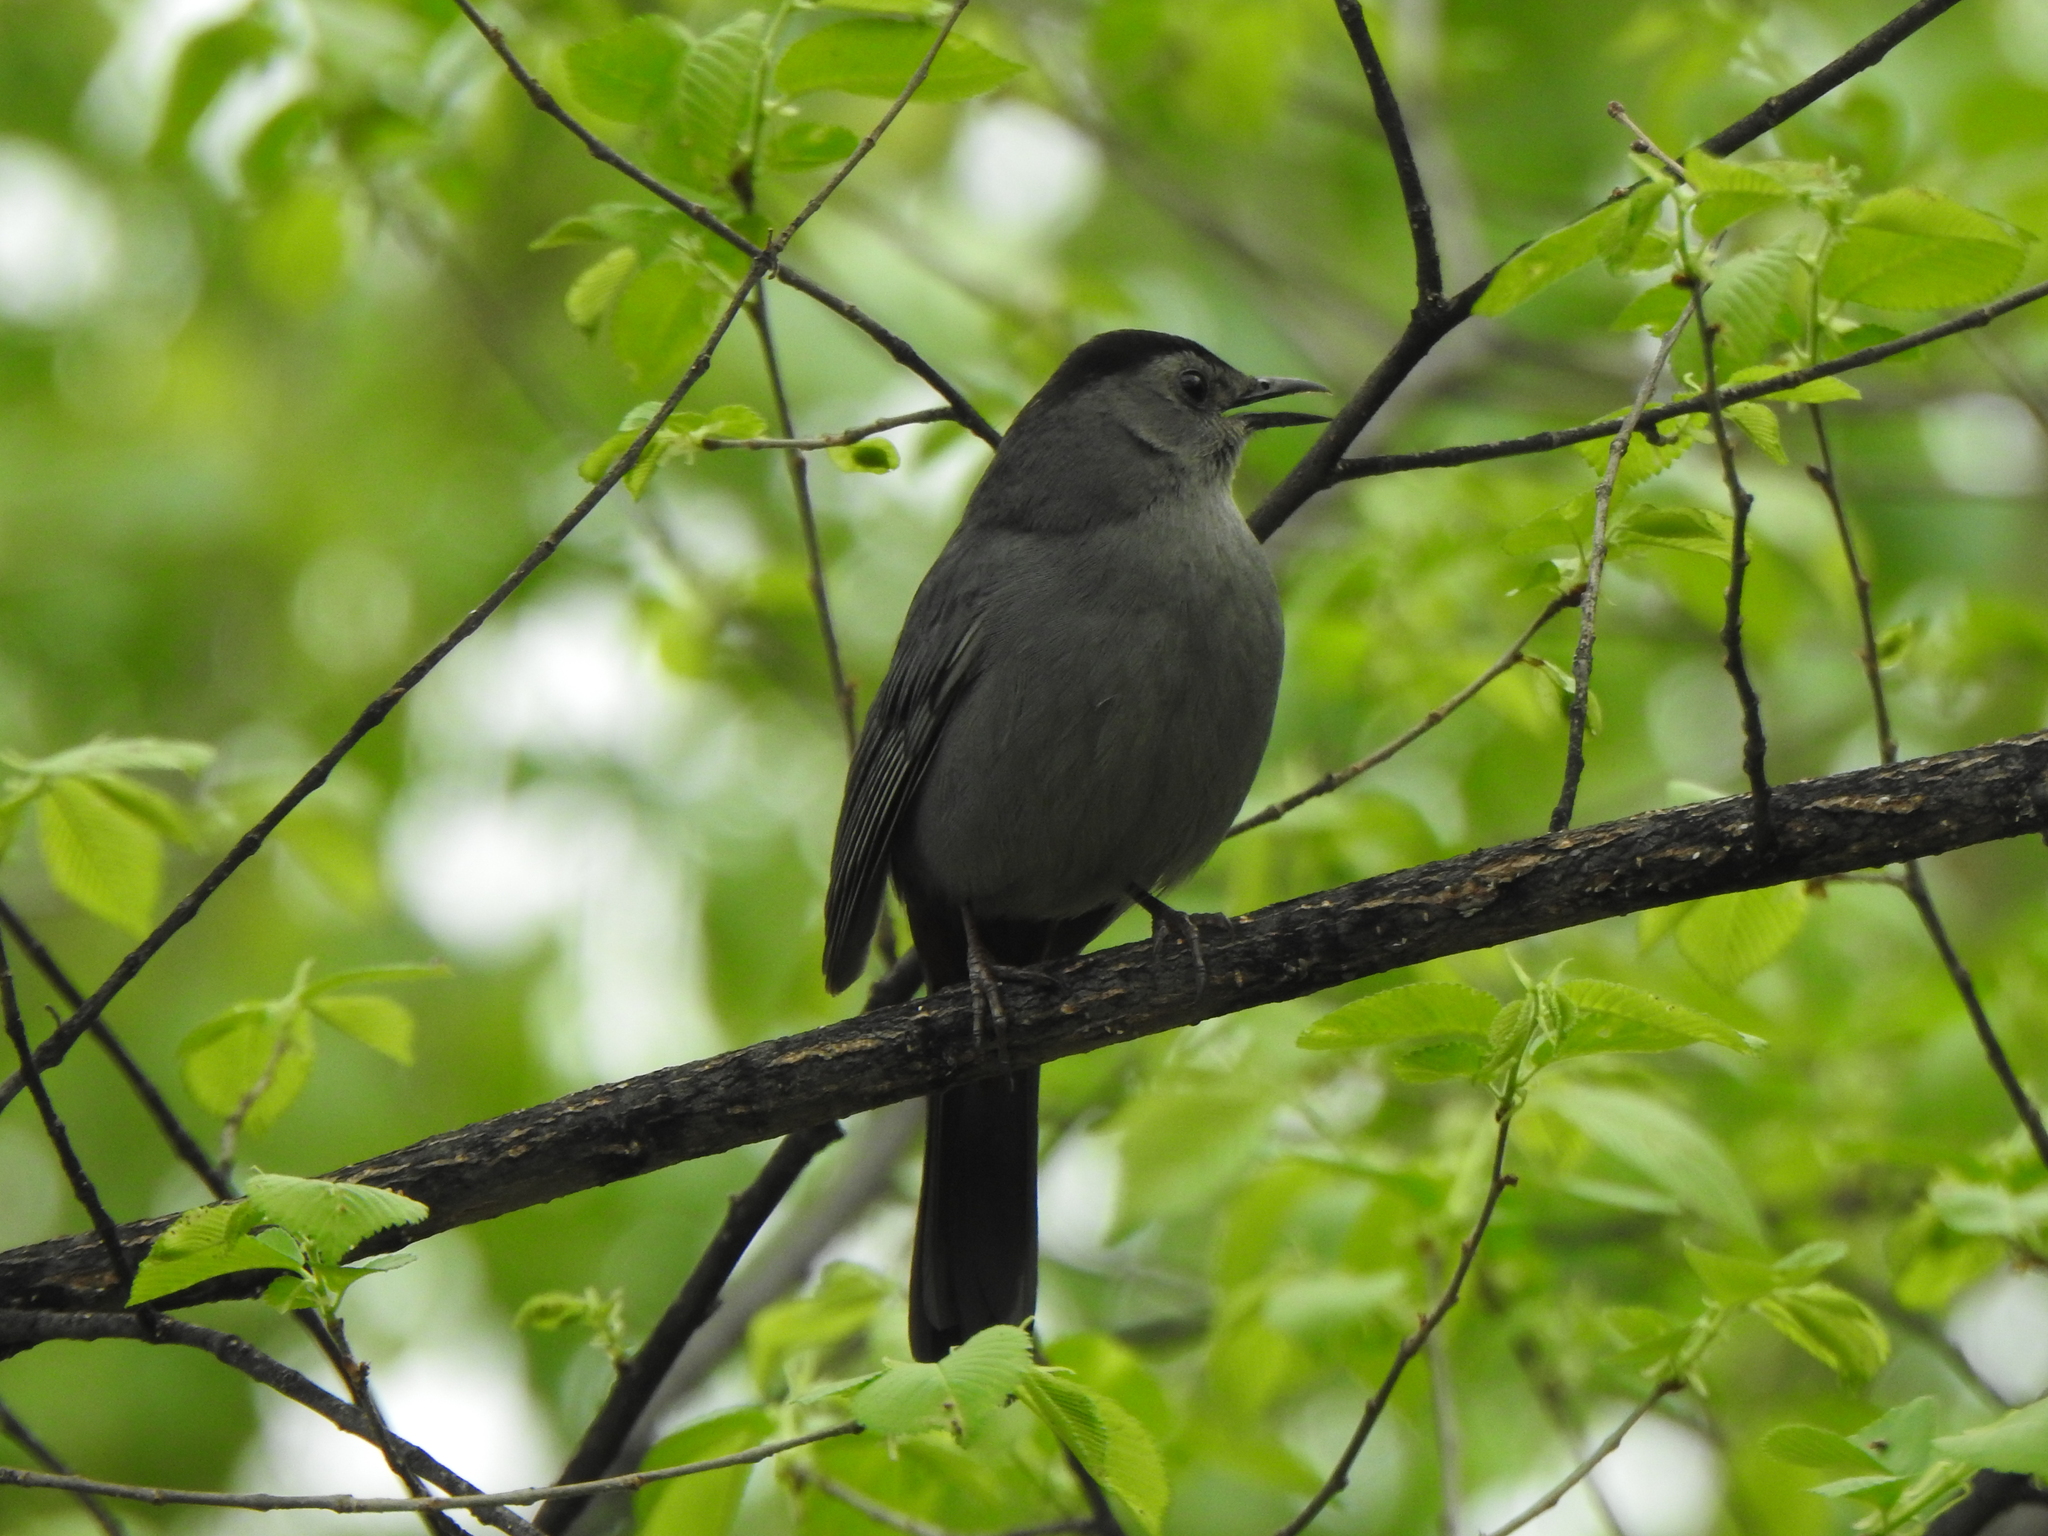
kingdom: Animalia
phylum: Chordata
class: Aves
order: Passeriformes
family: Mimidae
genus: Dumetella
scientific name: Dumetella carolinensis
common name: Gray catbird
